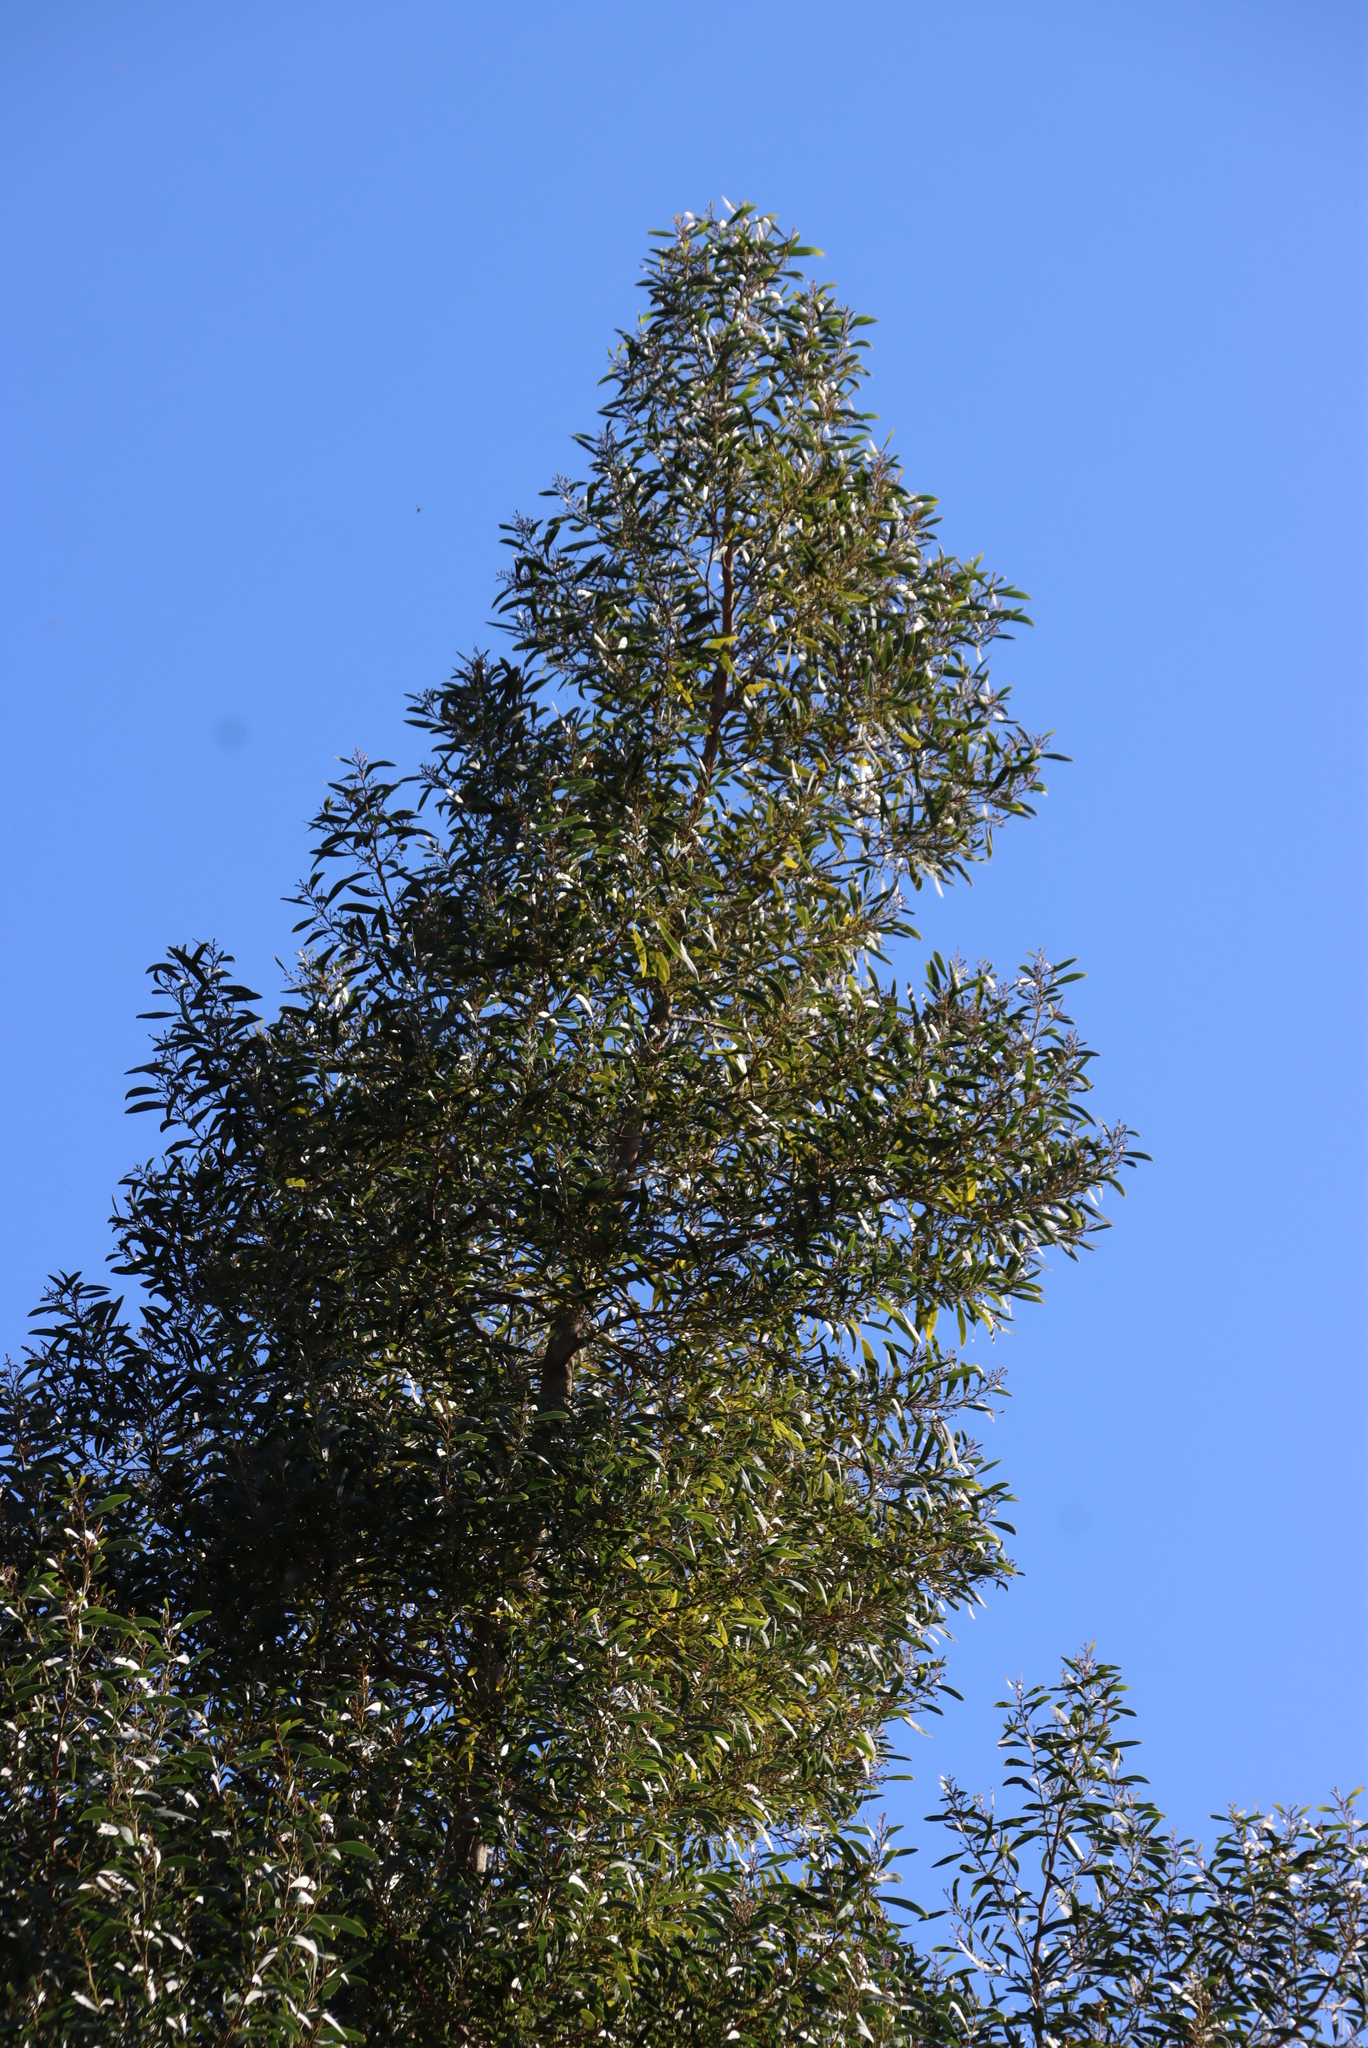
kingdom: Plantae
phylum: Tracheophyta
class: Magnoliopsida
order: Fabales
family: Fabaceae
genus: Acacia
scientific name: Acacia melanoxylon
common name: Blackwood
